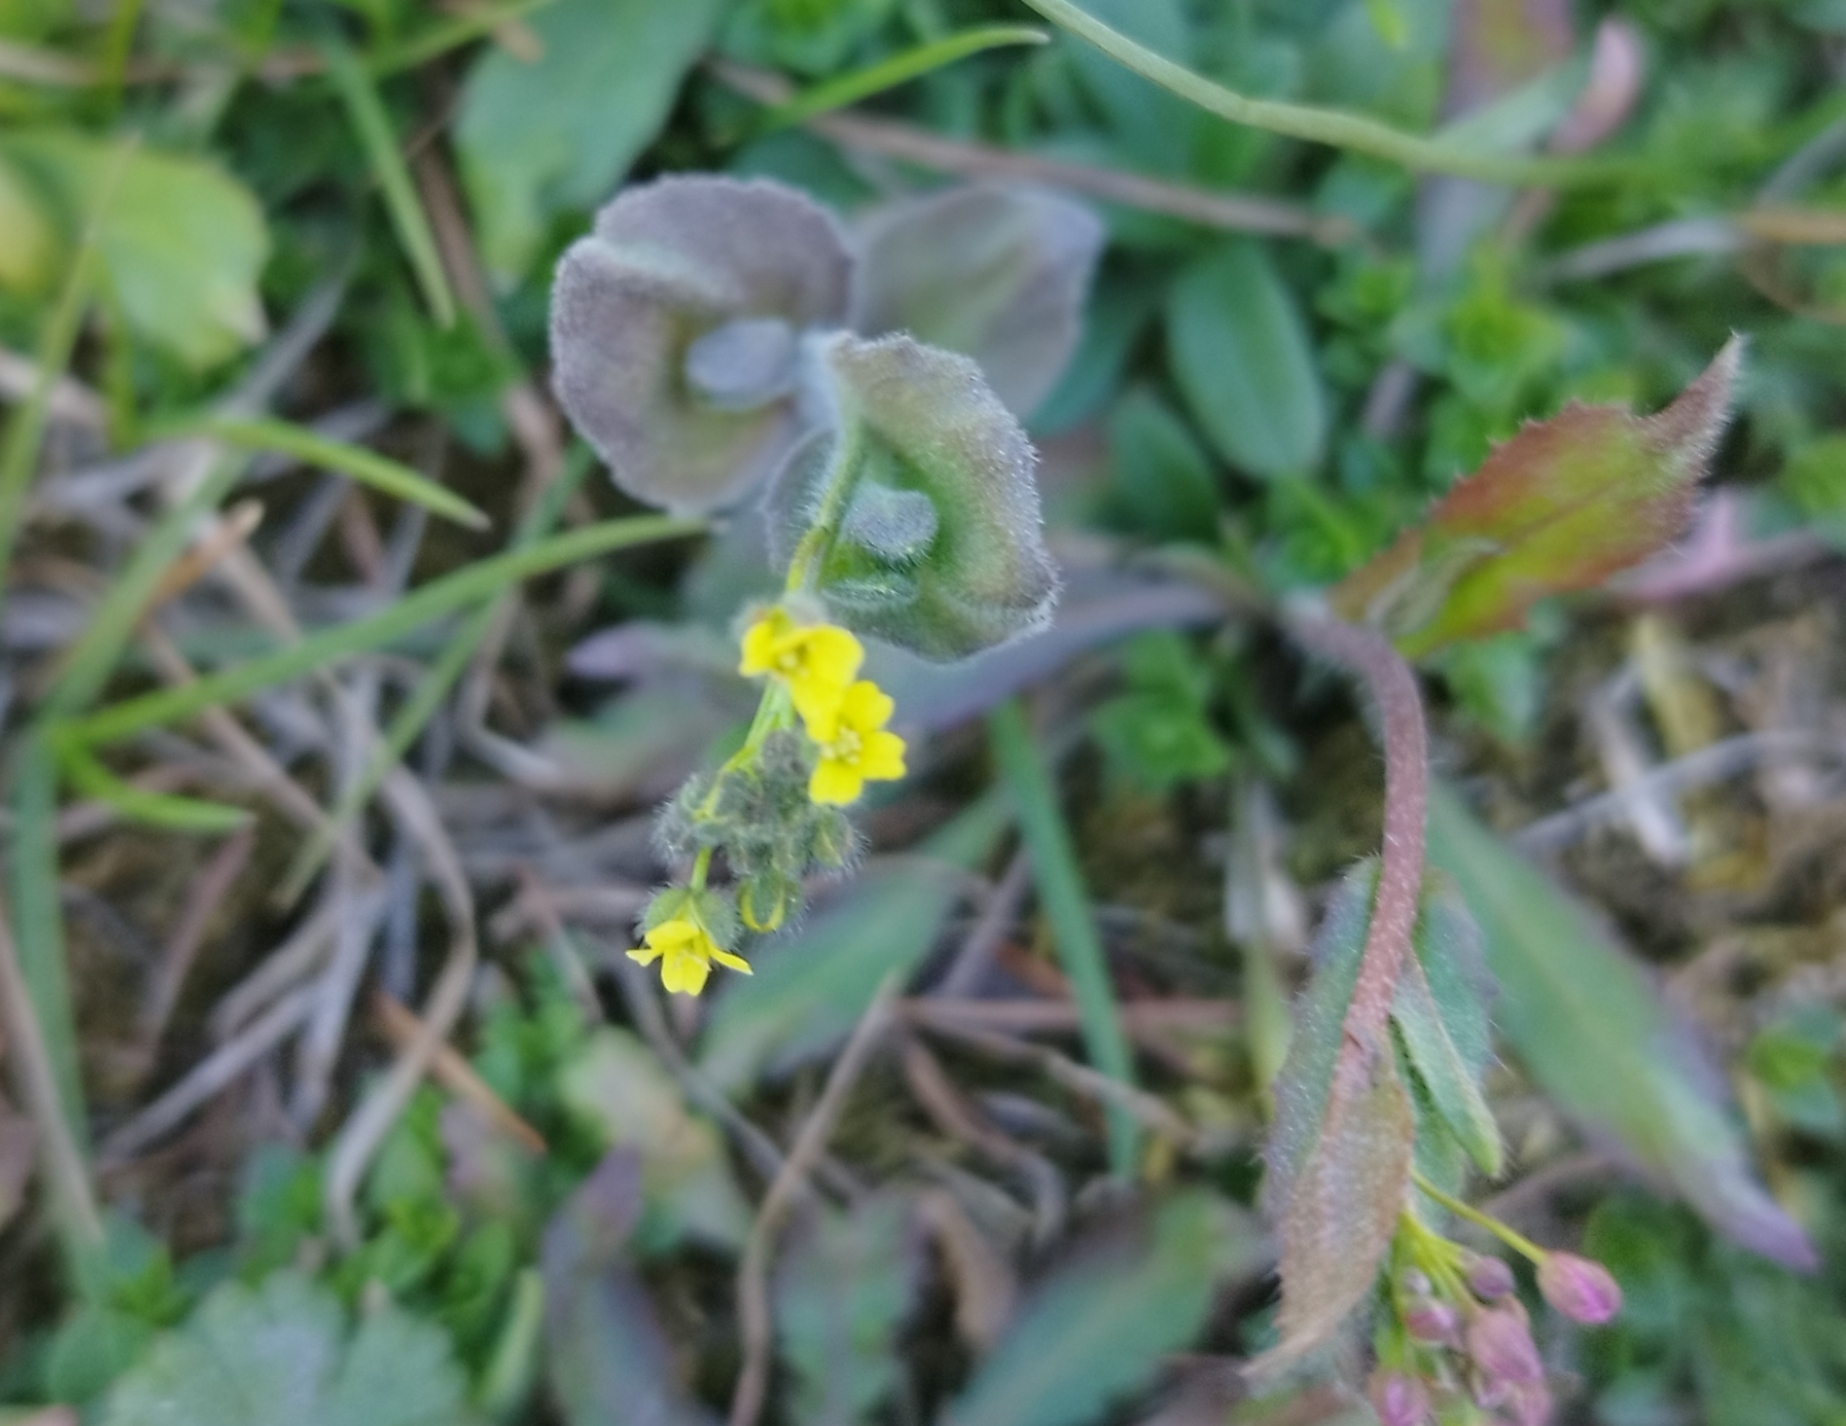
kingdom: Plantae
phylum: Tracheophyta
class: Magnoliopsida
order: Brassicales
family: Brassicaceae
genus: Draba
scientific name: Draba nemorosa
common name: Wood whitlow-grass
